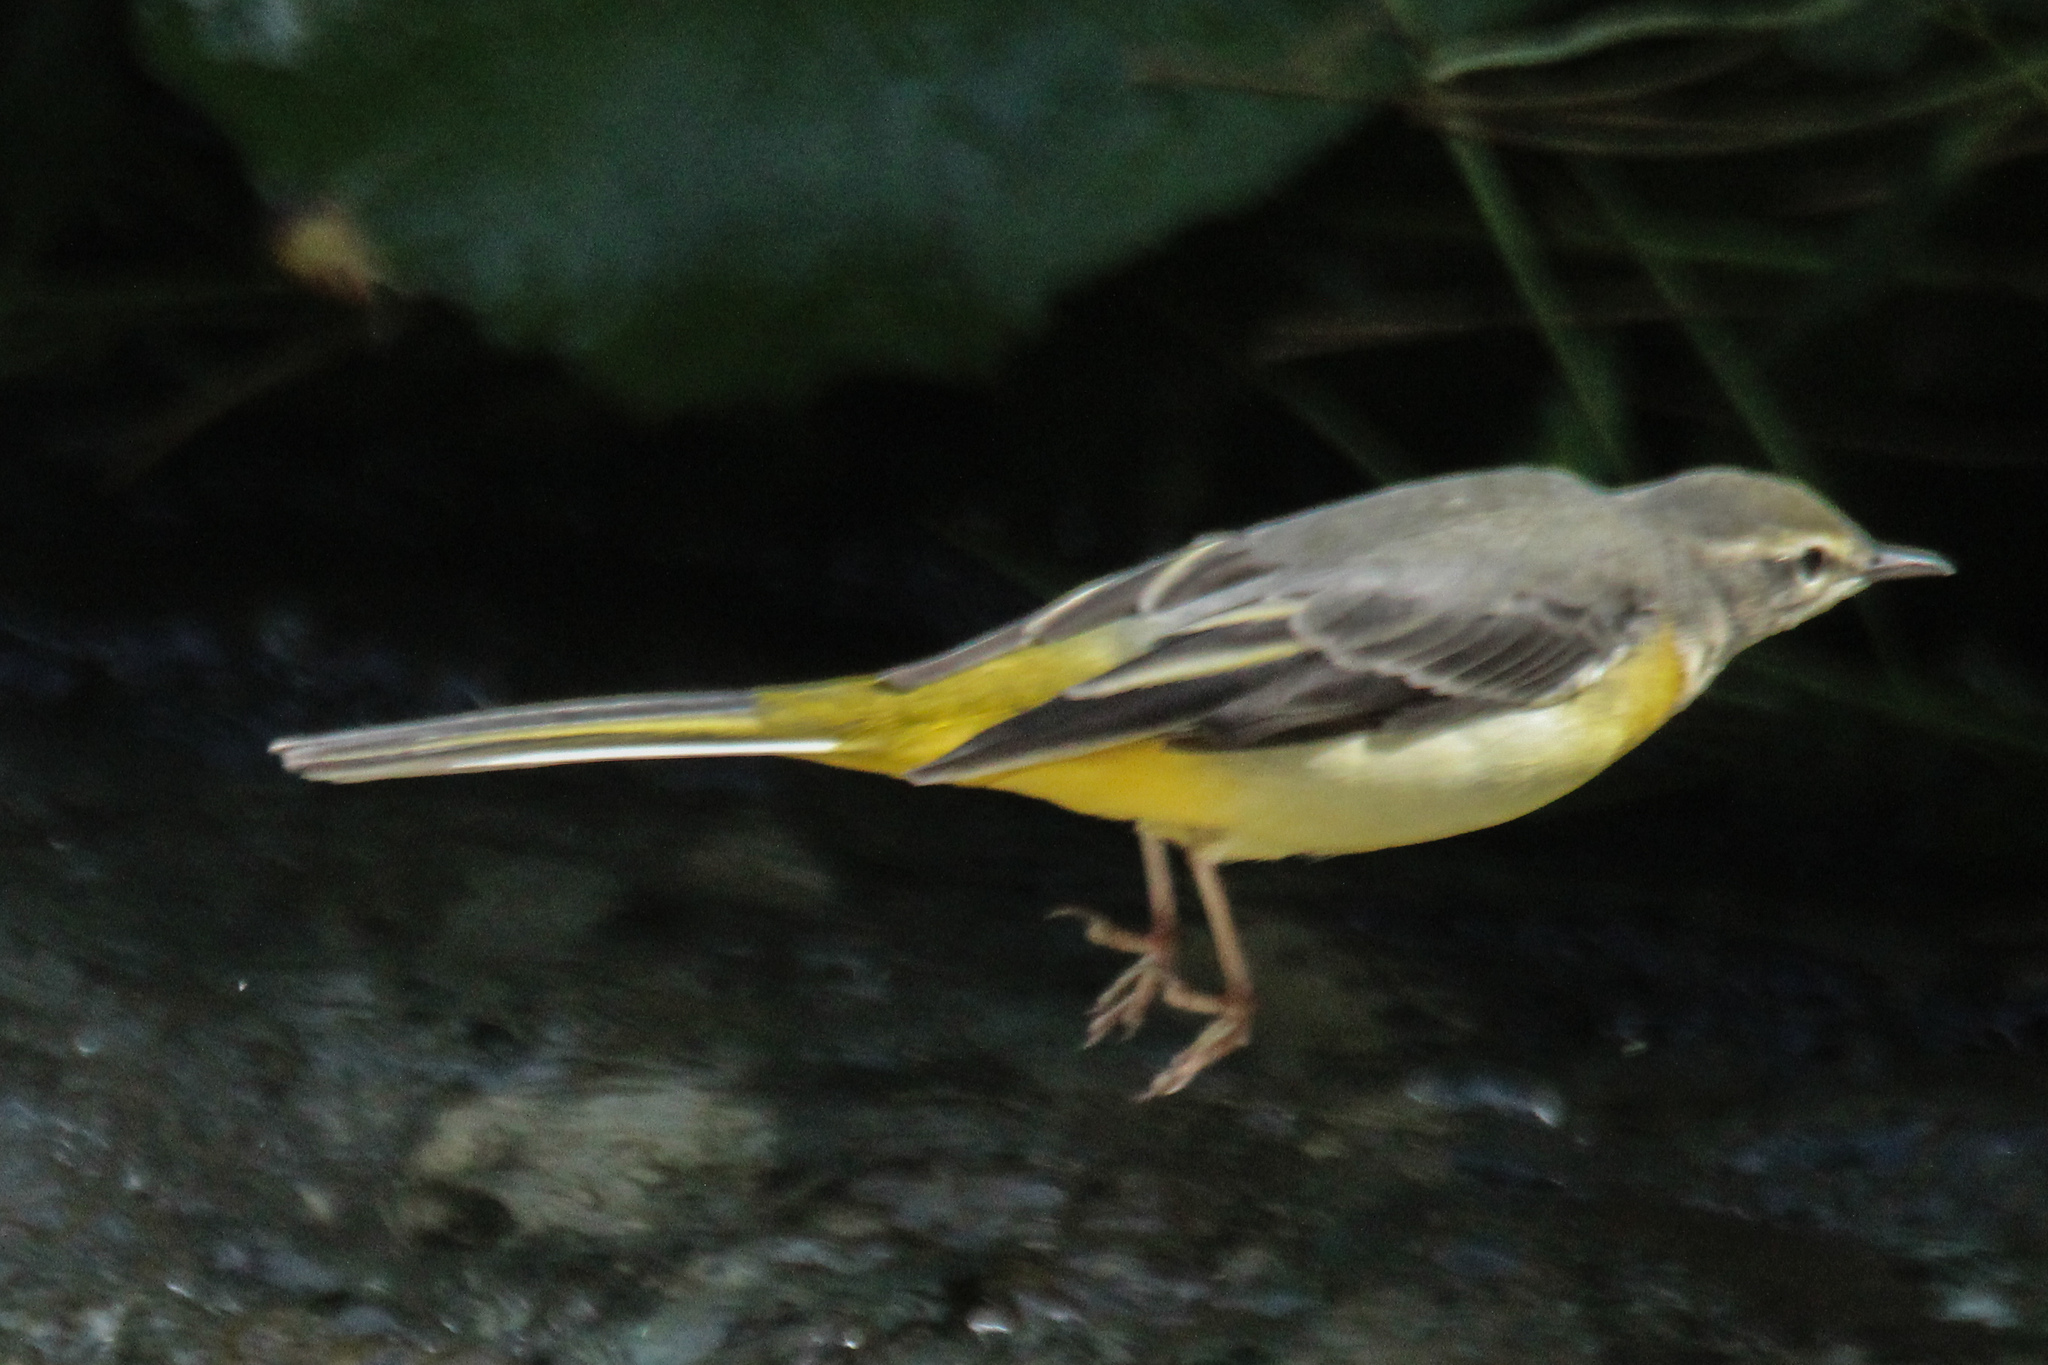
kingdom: Animalia
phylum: Chordata
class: Aves
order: Passeriformes
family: Motacillidae
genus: Motacilla
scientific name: Motacilla cinerea
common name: Grey wagtail
